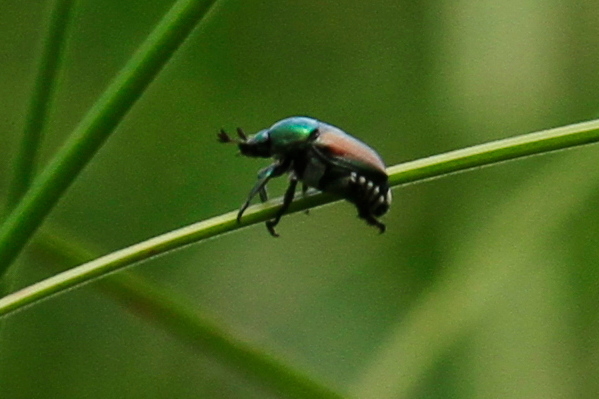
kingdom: Animalia
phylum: Arthropoda
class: Insecta
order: Coleoptera
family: Scarabaeidae
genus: Popillia
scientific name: Popillia japonica
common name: Japanese beetle
